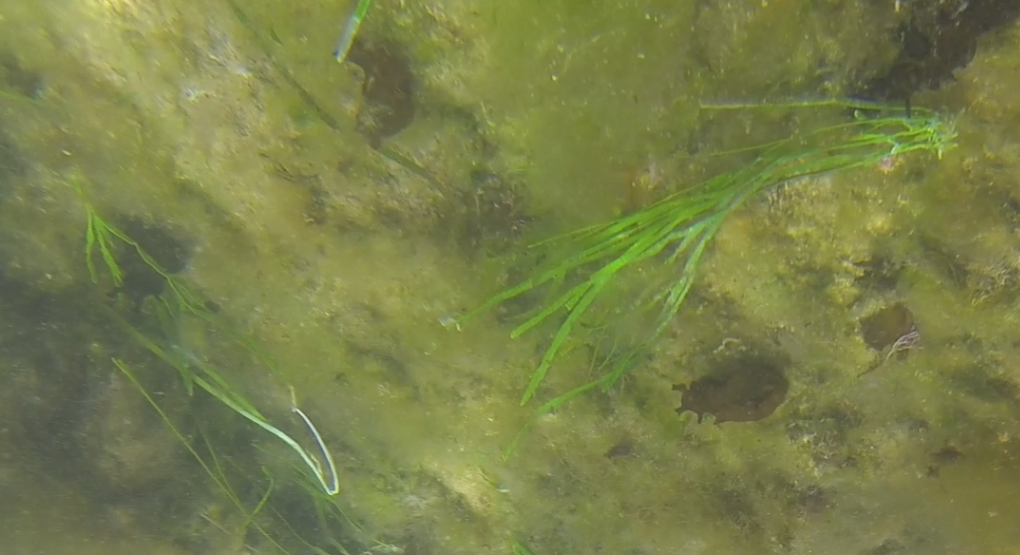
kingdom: Animalia
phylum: Mollusca
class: Gastropoda
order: Aplysiida
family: Aplysiidae
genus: Aplysia
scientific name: Aplysia juliana
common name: Walking sea hare
